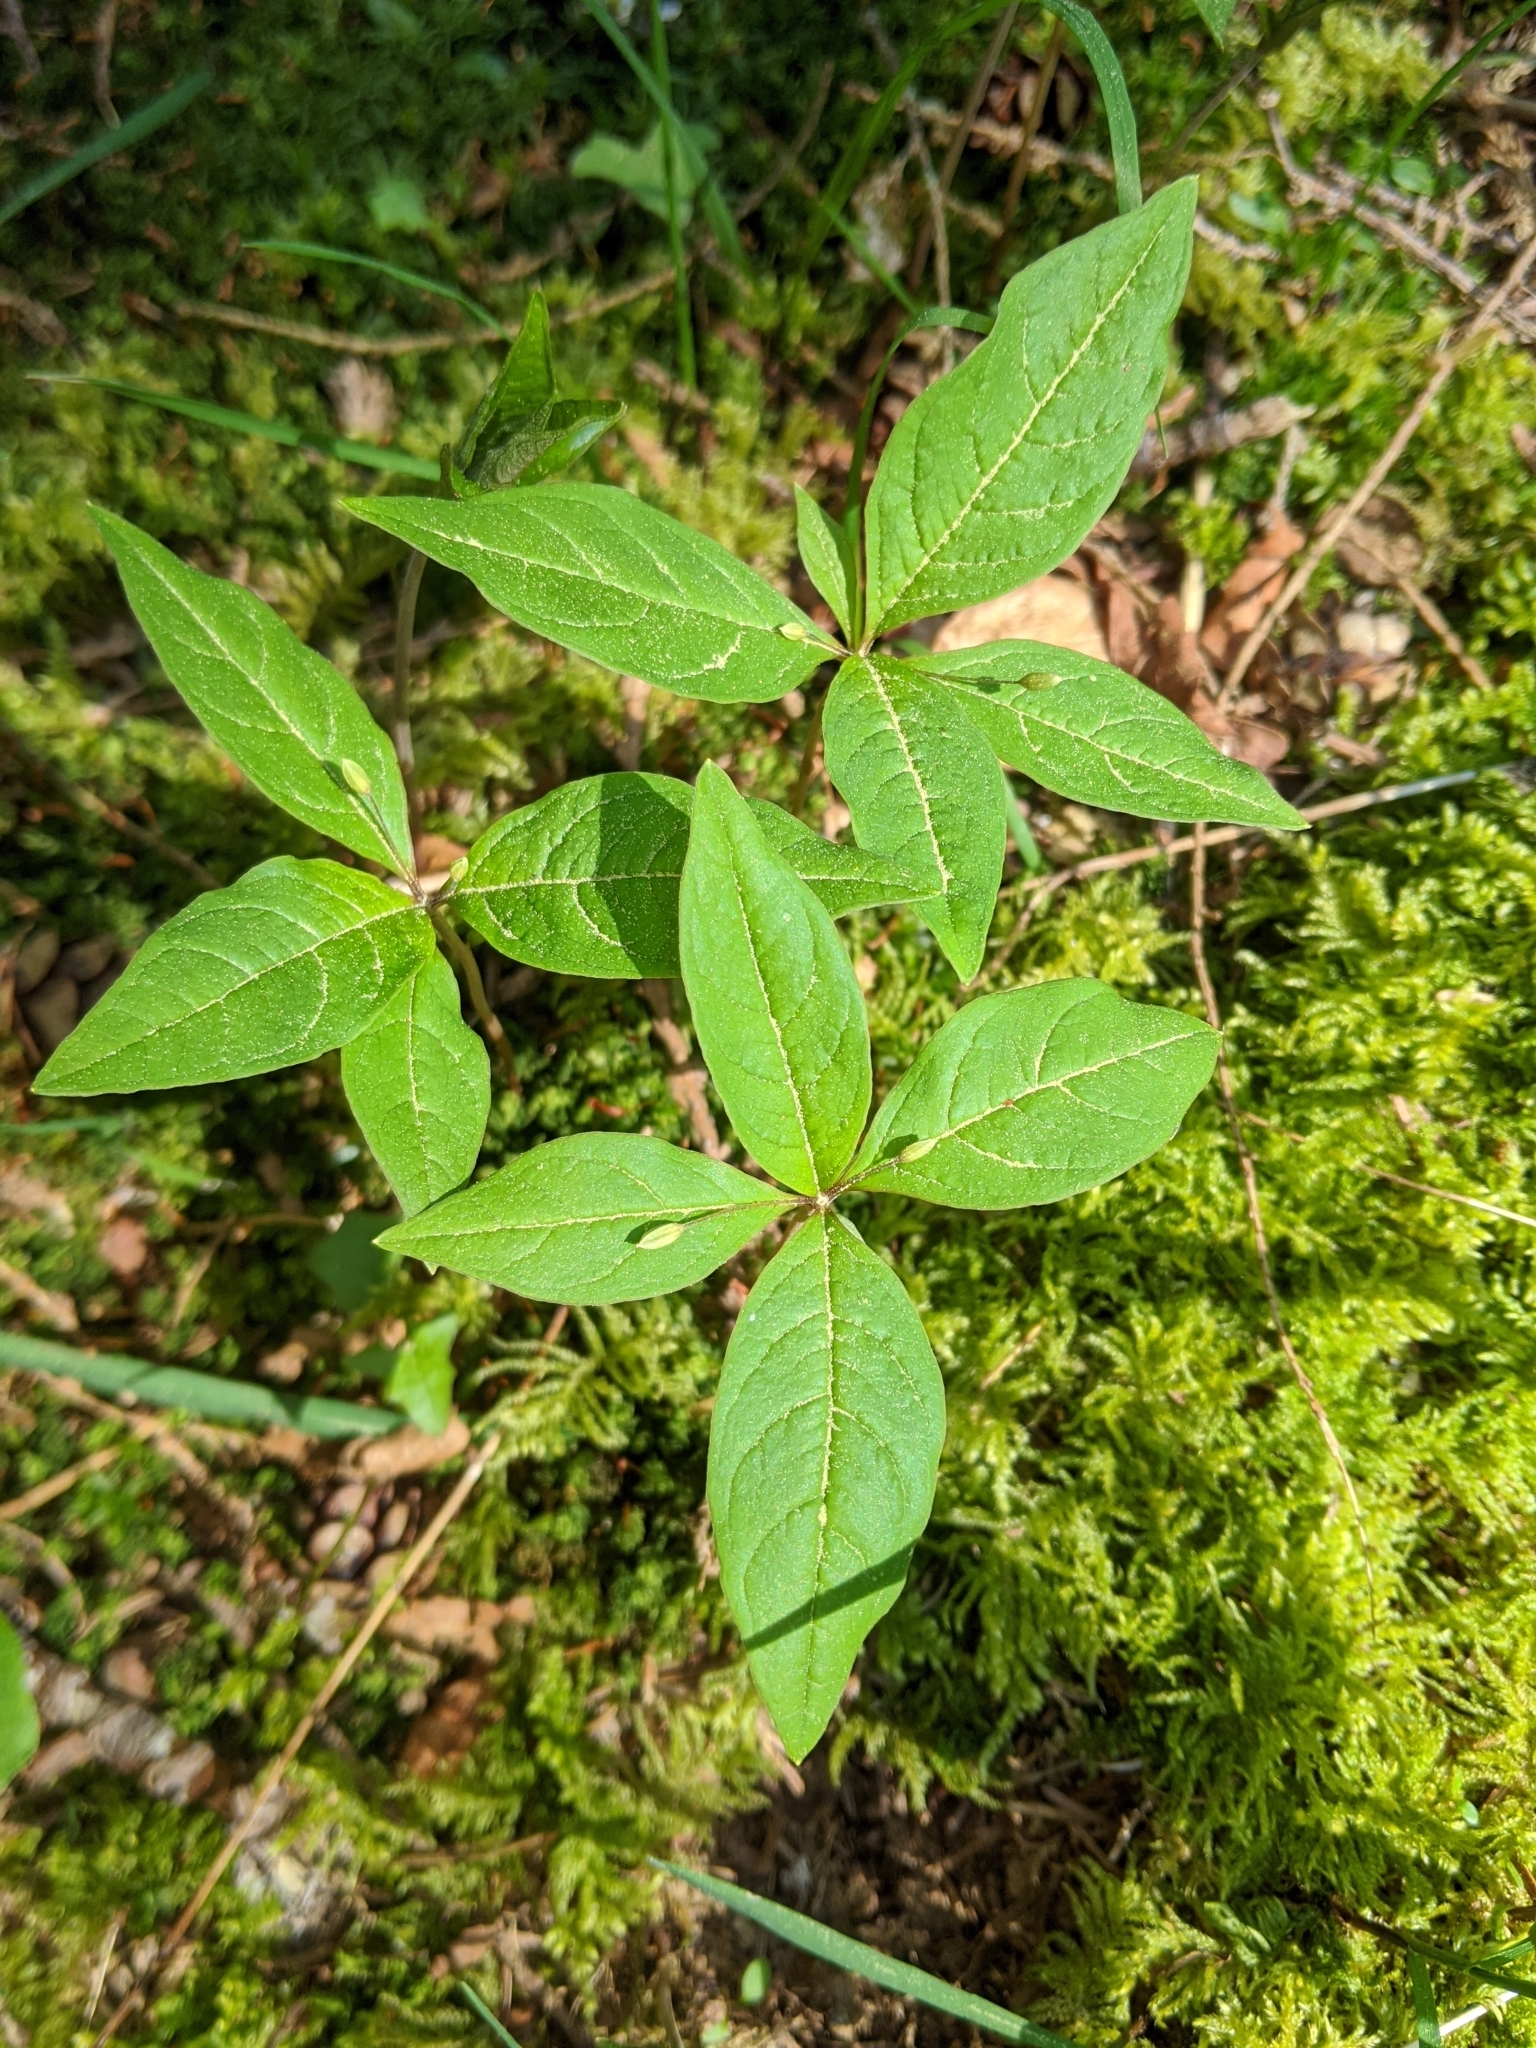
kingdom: Plantae
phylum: Tracheophyta
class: Magnoliopsida
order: Ericales
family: Primulaceae
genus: Lysimachia
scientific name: Lysimachia latifolia
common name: Pacific starflower
